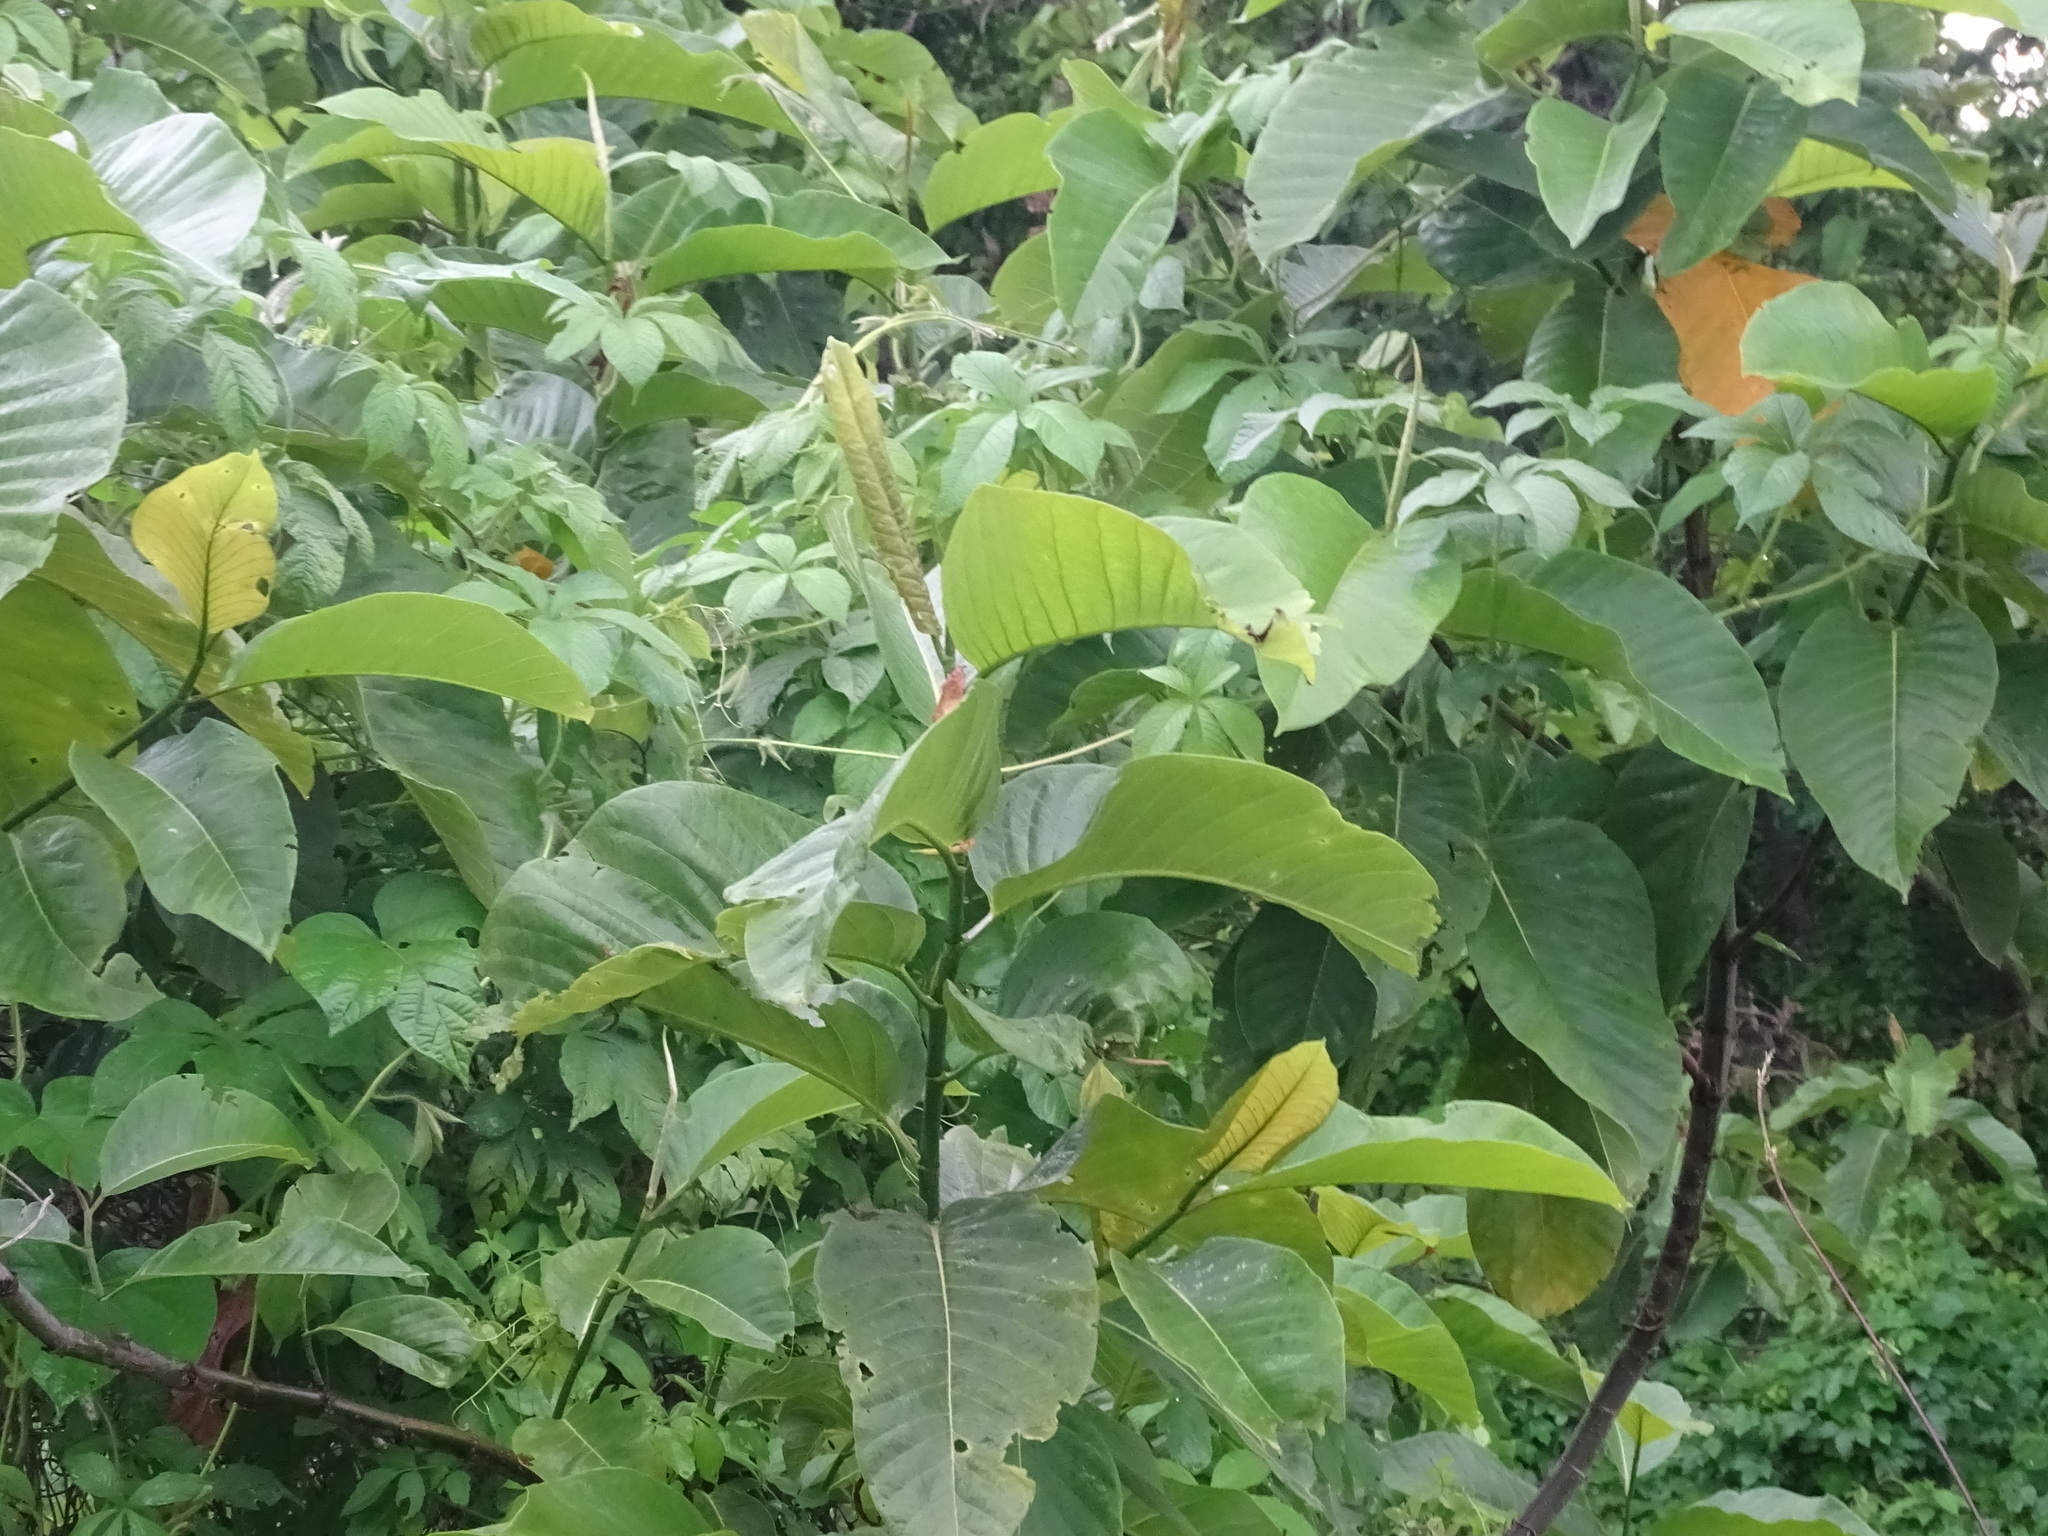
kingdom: Plantae
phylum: Tracheophyta
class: Magnoliopsida
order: Caryophyllales
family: Polygonaceae
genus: Triplaris
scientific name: Triplaris melaenodendron
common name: Long john
